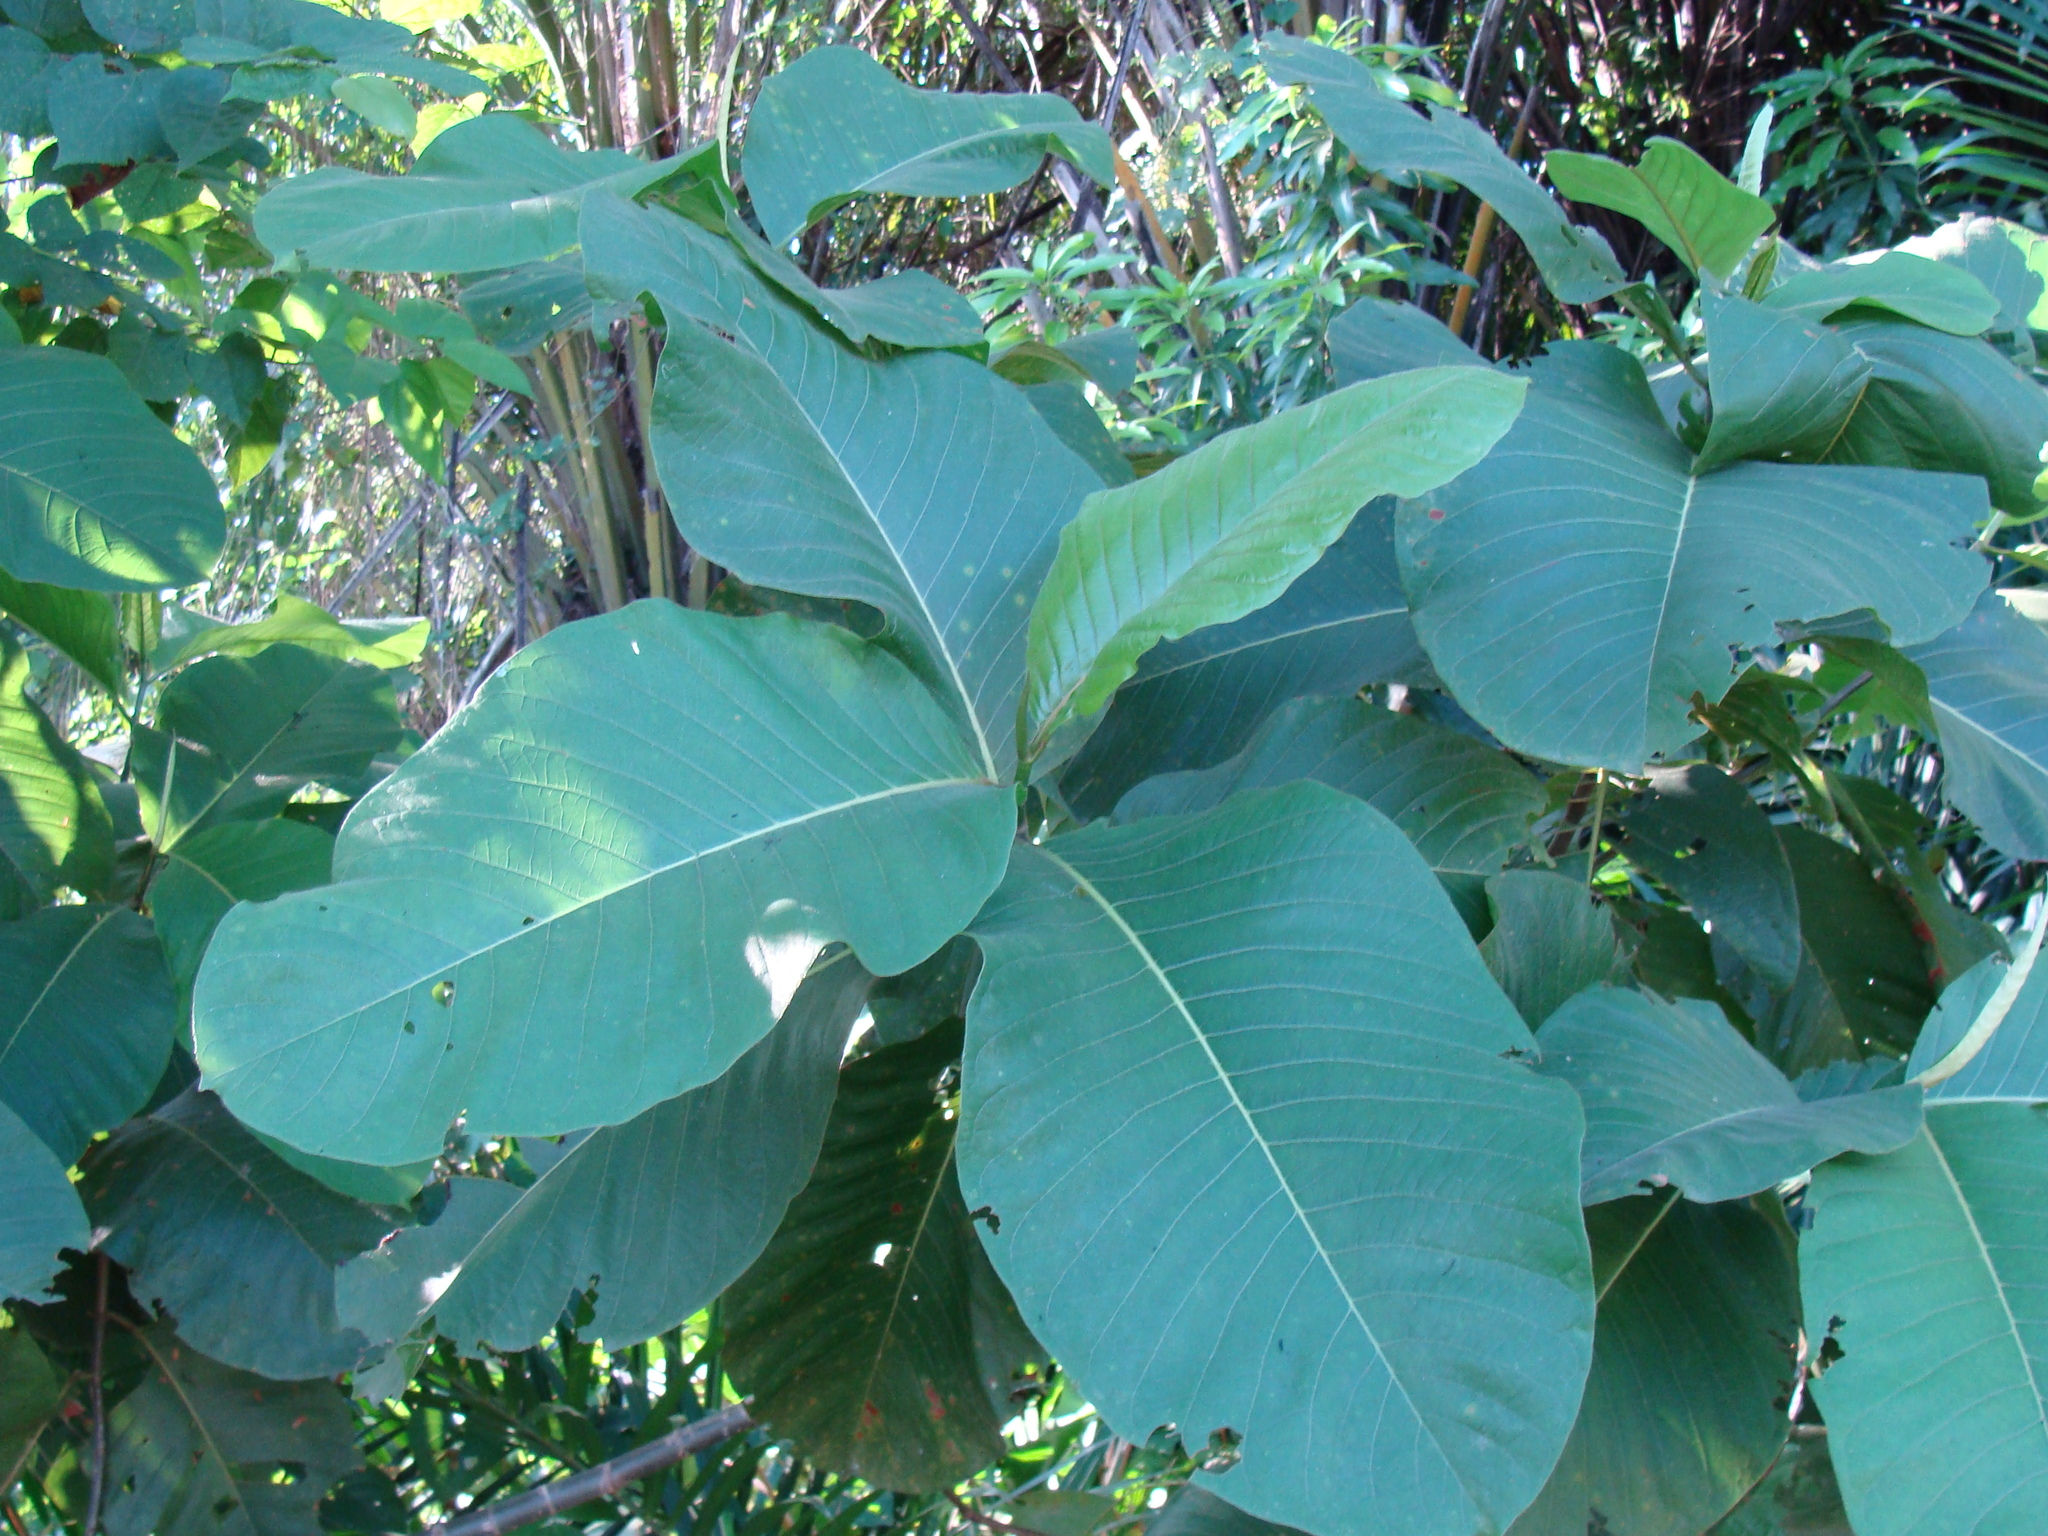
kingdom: Plantae
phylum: Tracheophyta
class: Magnoliopsida
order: Caryophyllales
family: Polygonaceae
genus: Triplaris
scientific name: Triplaris melaenodendron
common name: Long john
